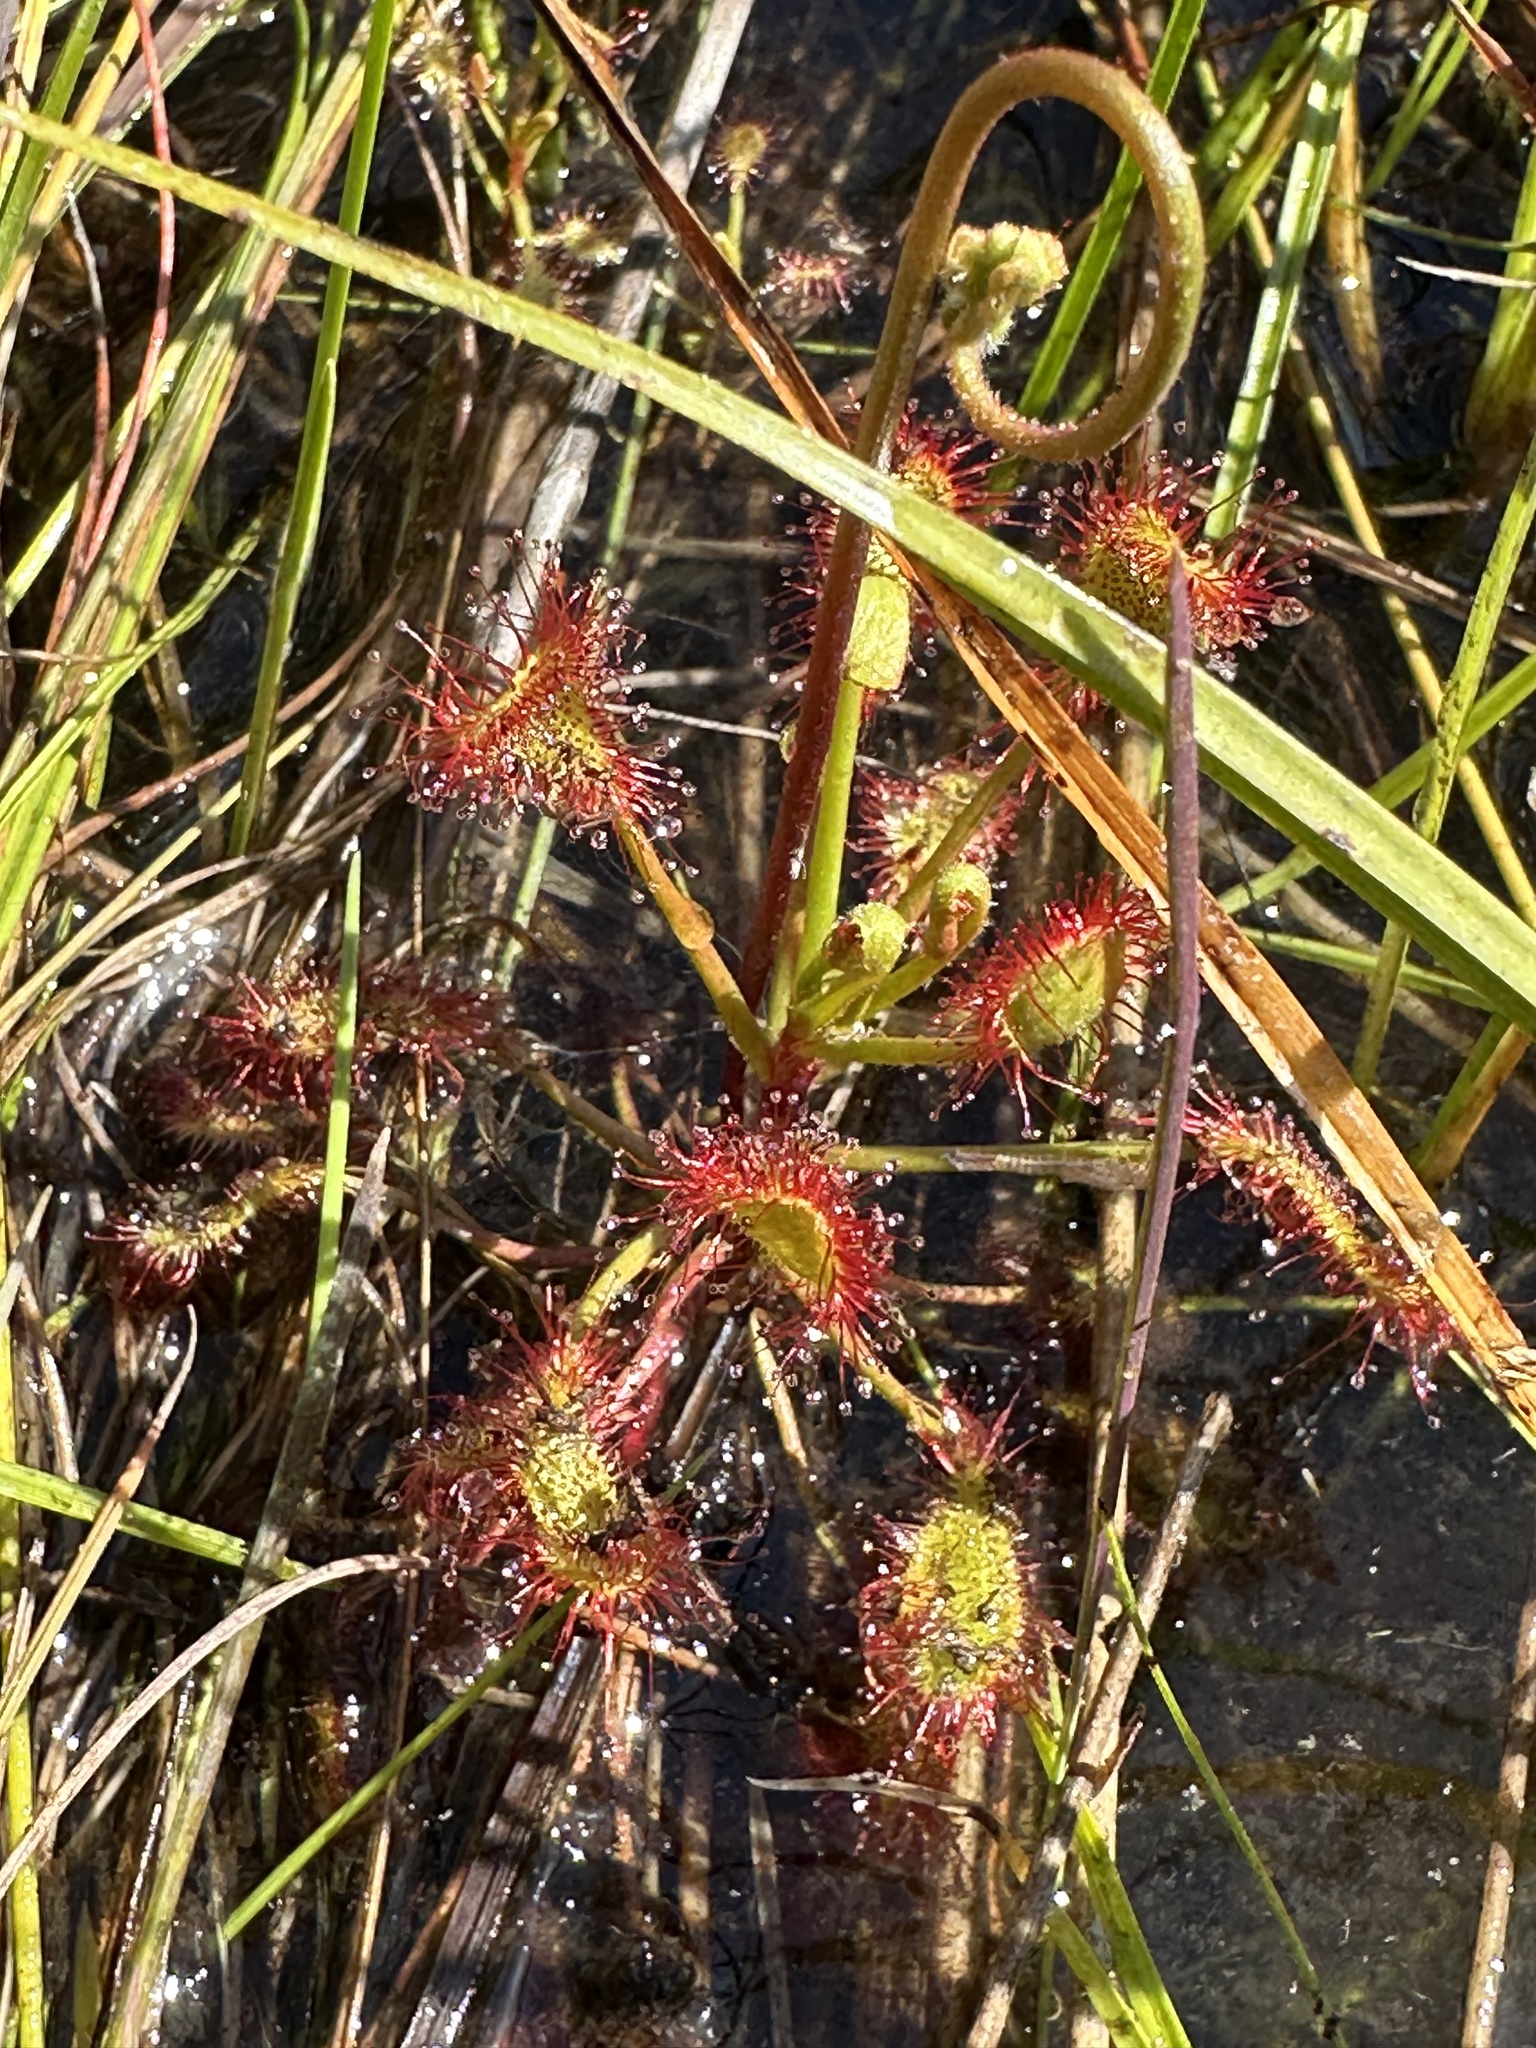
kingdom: Plantae
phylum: Tracheophyta
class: Magnoliopsida
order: Caryophyllales
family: Droseraceae
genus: Drosera
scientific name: Drosera madagascariensis
